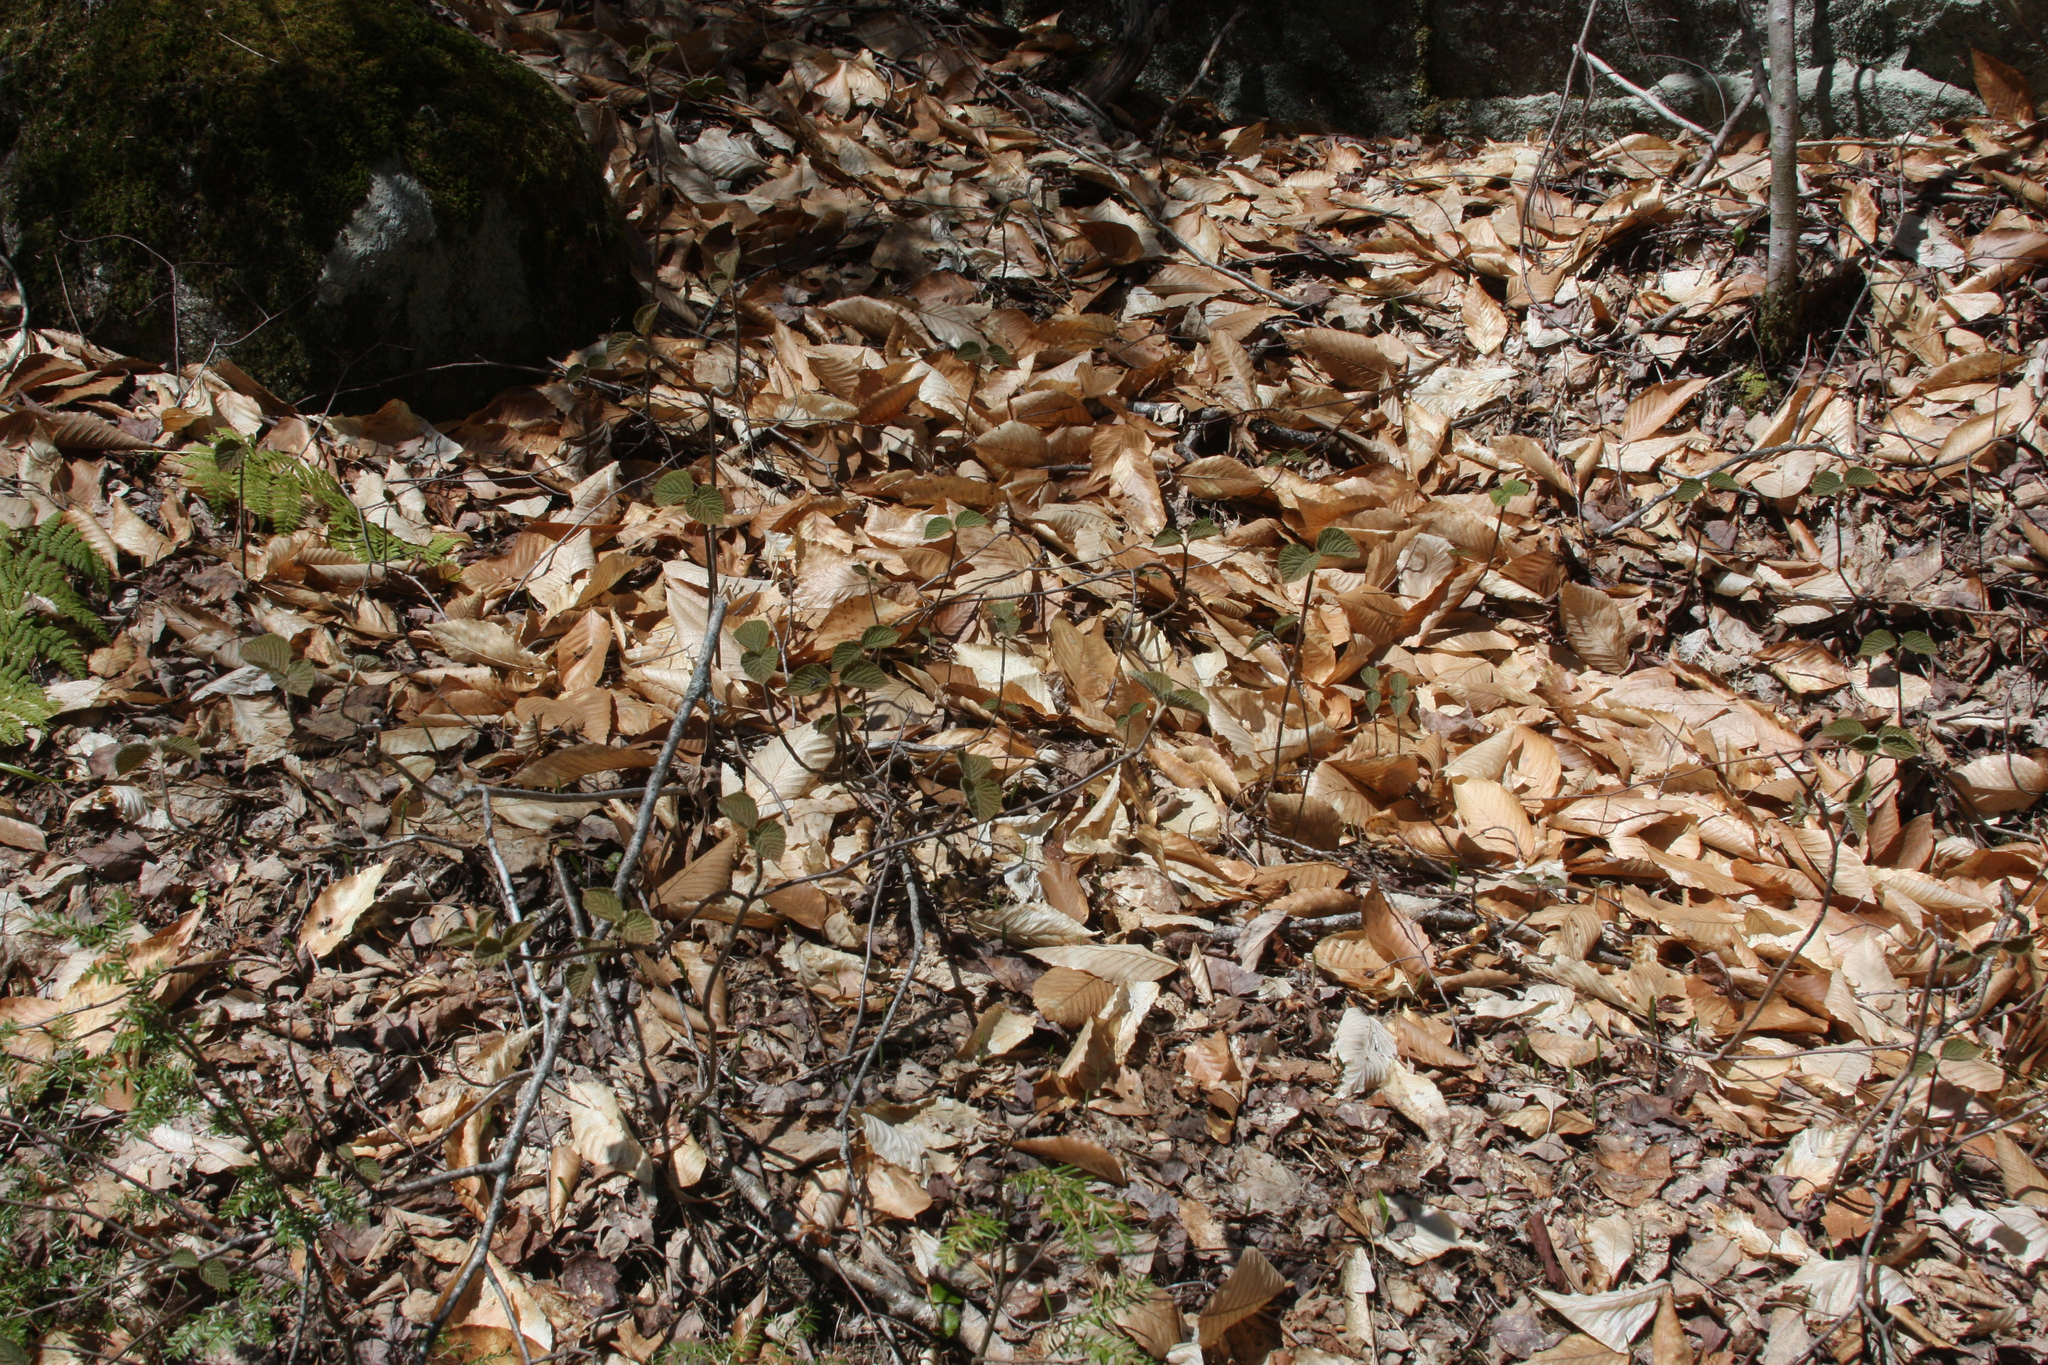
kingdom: Plantae
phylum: Tracheophyta
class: Magnoliopsida
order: Dipsacales
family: Viburnaceae
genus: Viburnum
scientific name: Viburnum lantanoides
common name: Hobblebush
